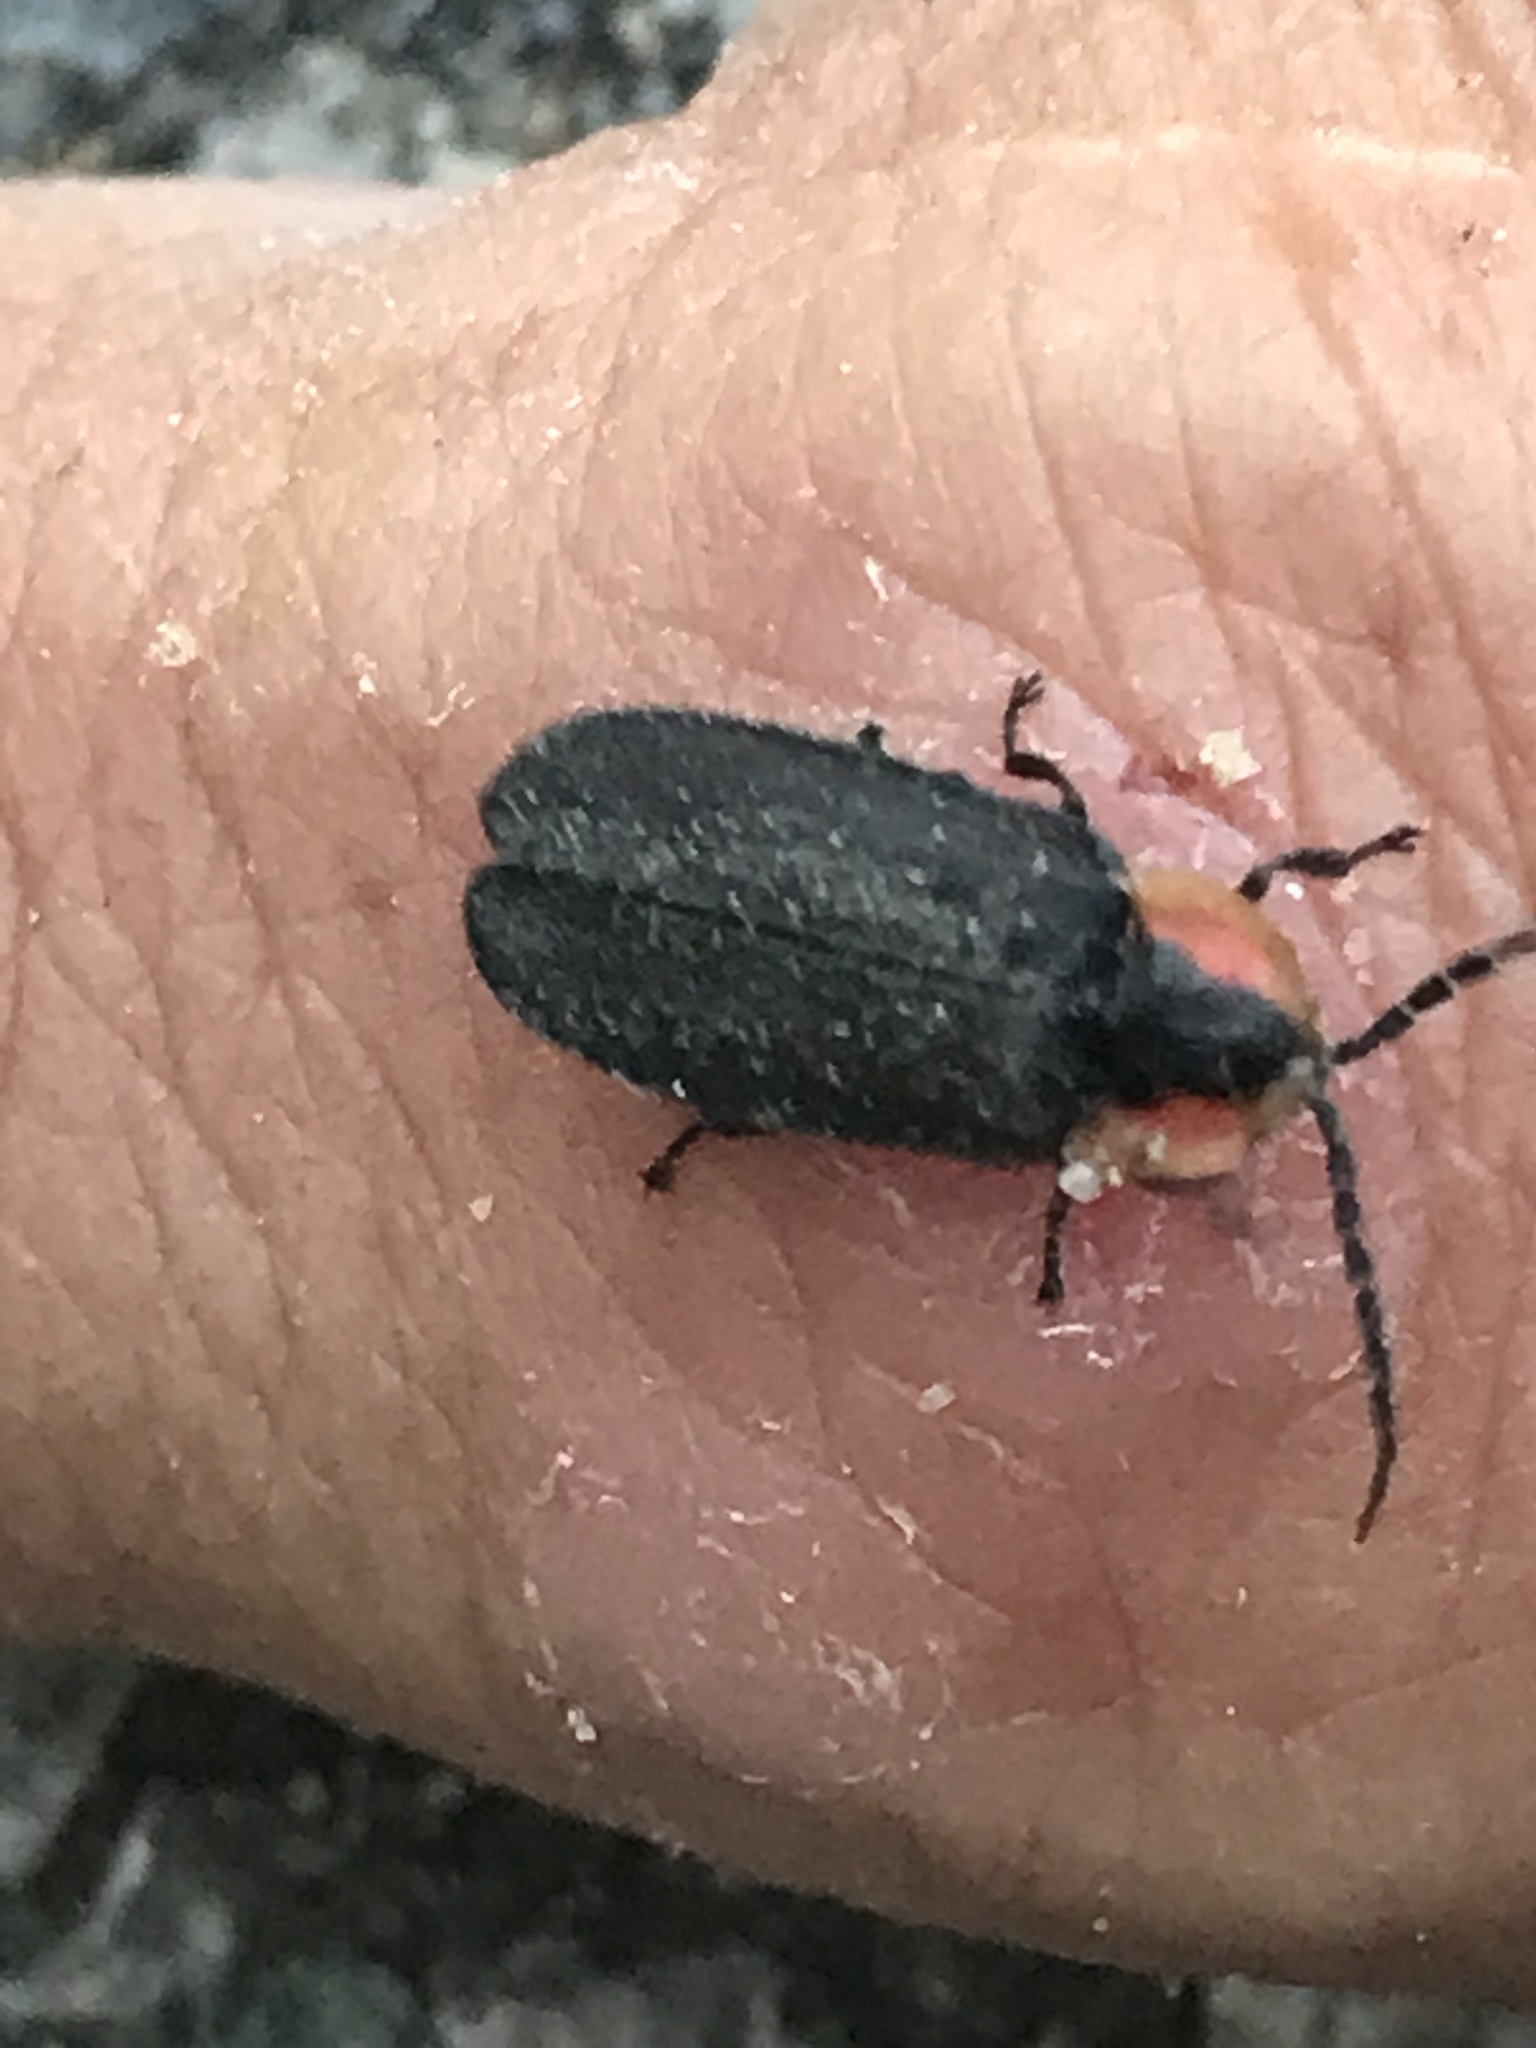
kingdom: Animalia
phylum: Arthropoda
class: Insecta
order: Coleoptera
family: Lampyridae
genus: Lucidota
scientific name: Lucidota atra
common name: Black firefly
